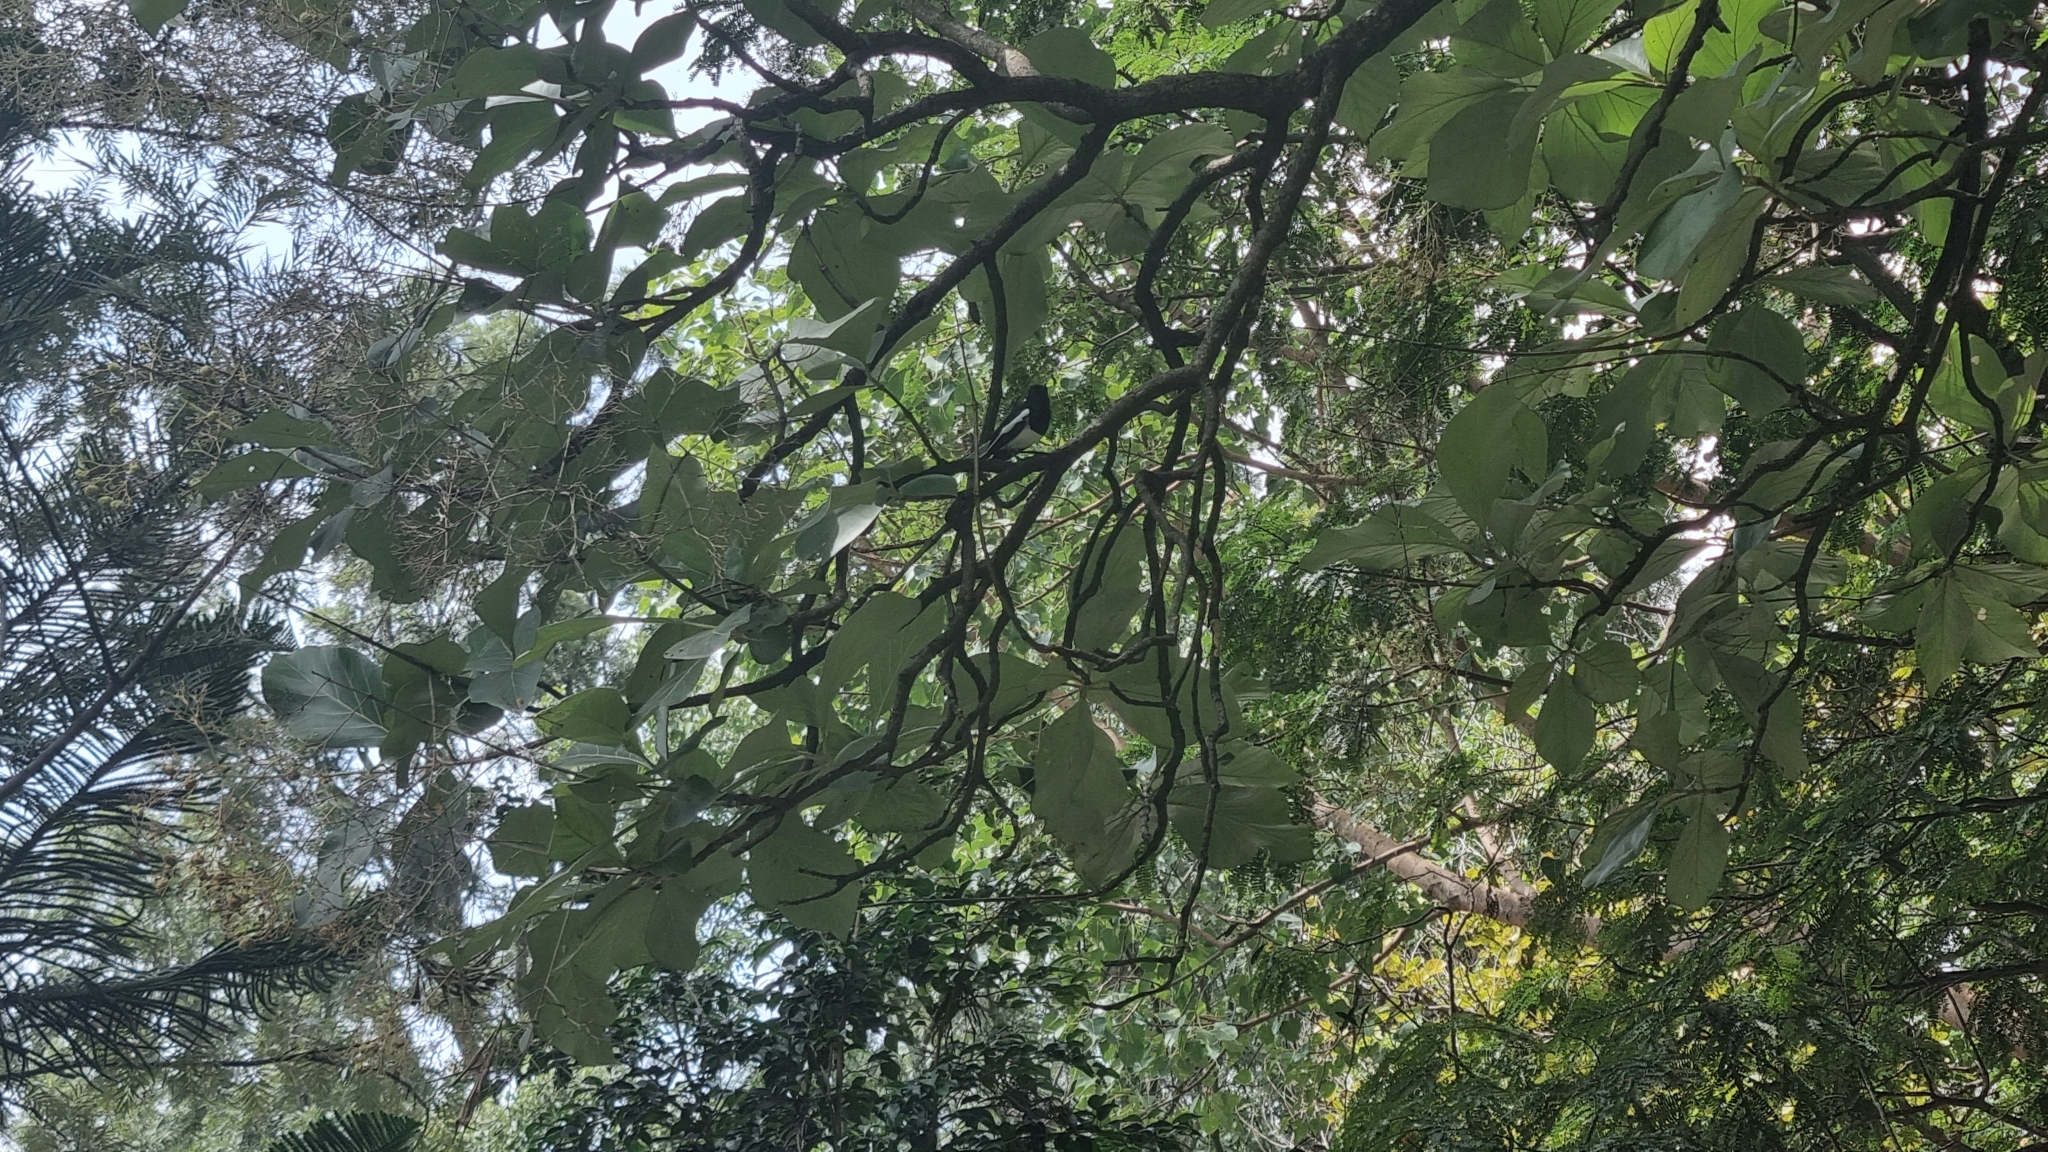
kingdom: Animalia
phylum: Chordata
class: Aves
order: Passeriformes
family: Muscicapidae
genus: Copsychus
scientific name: Copsychus saularis
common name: Oriental magpie-robin
